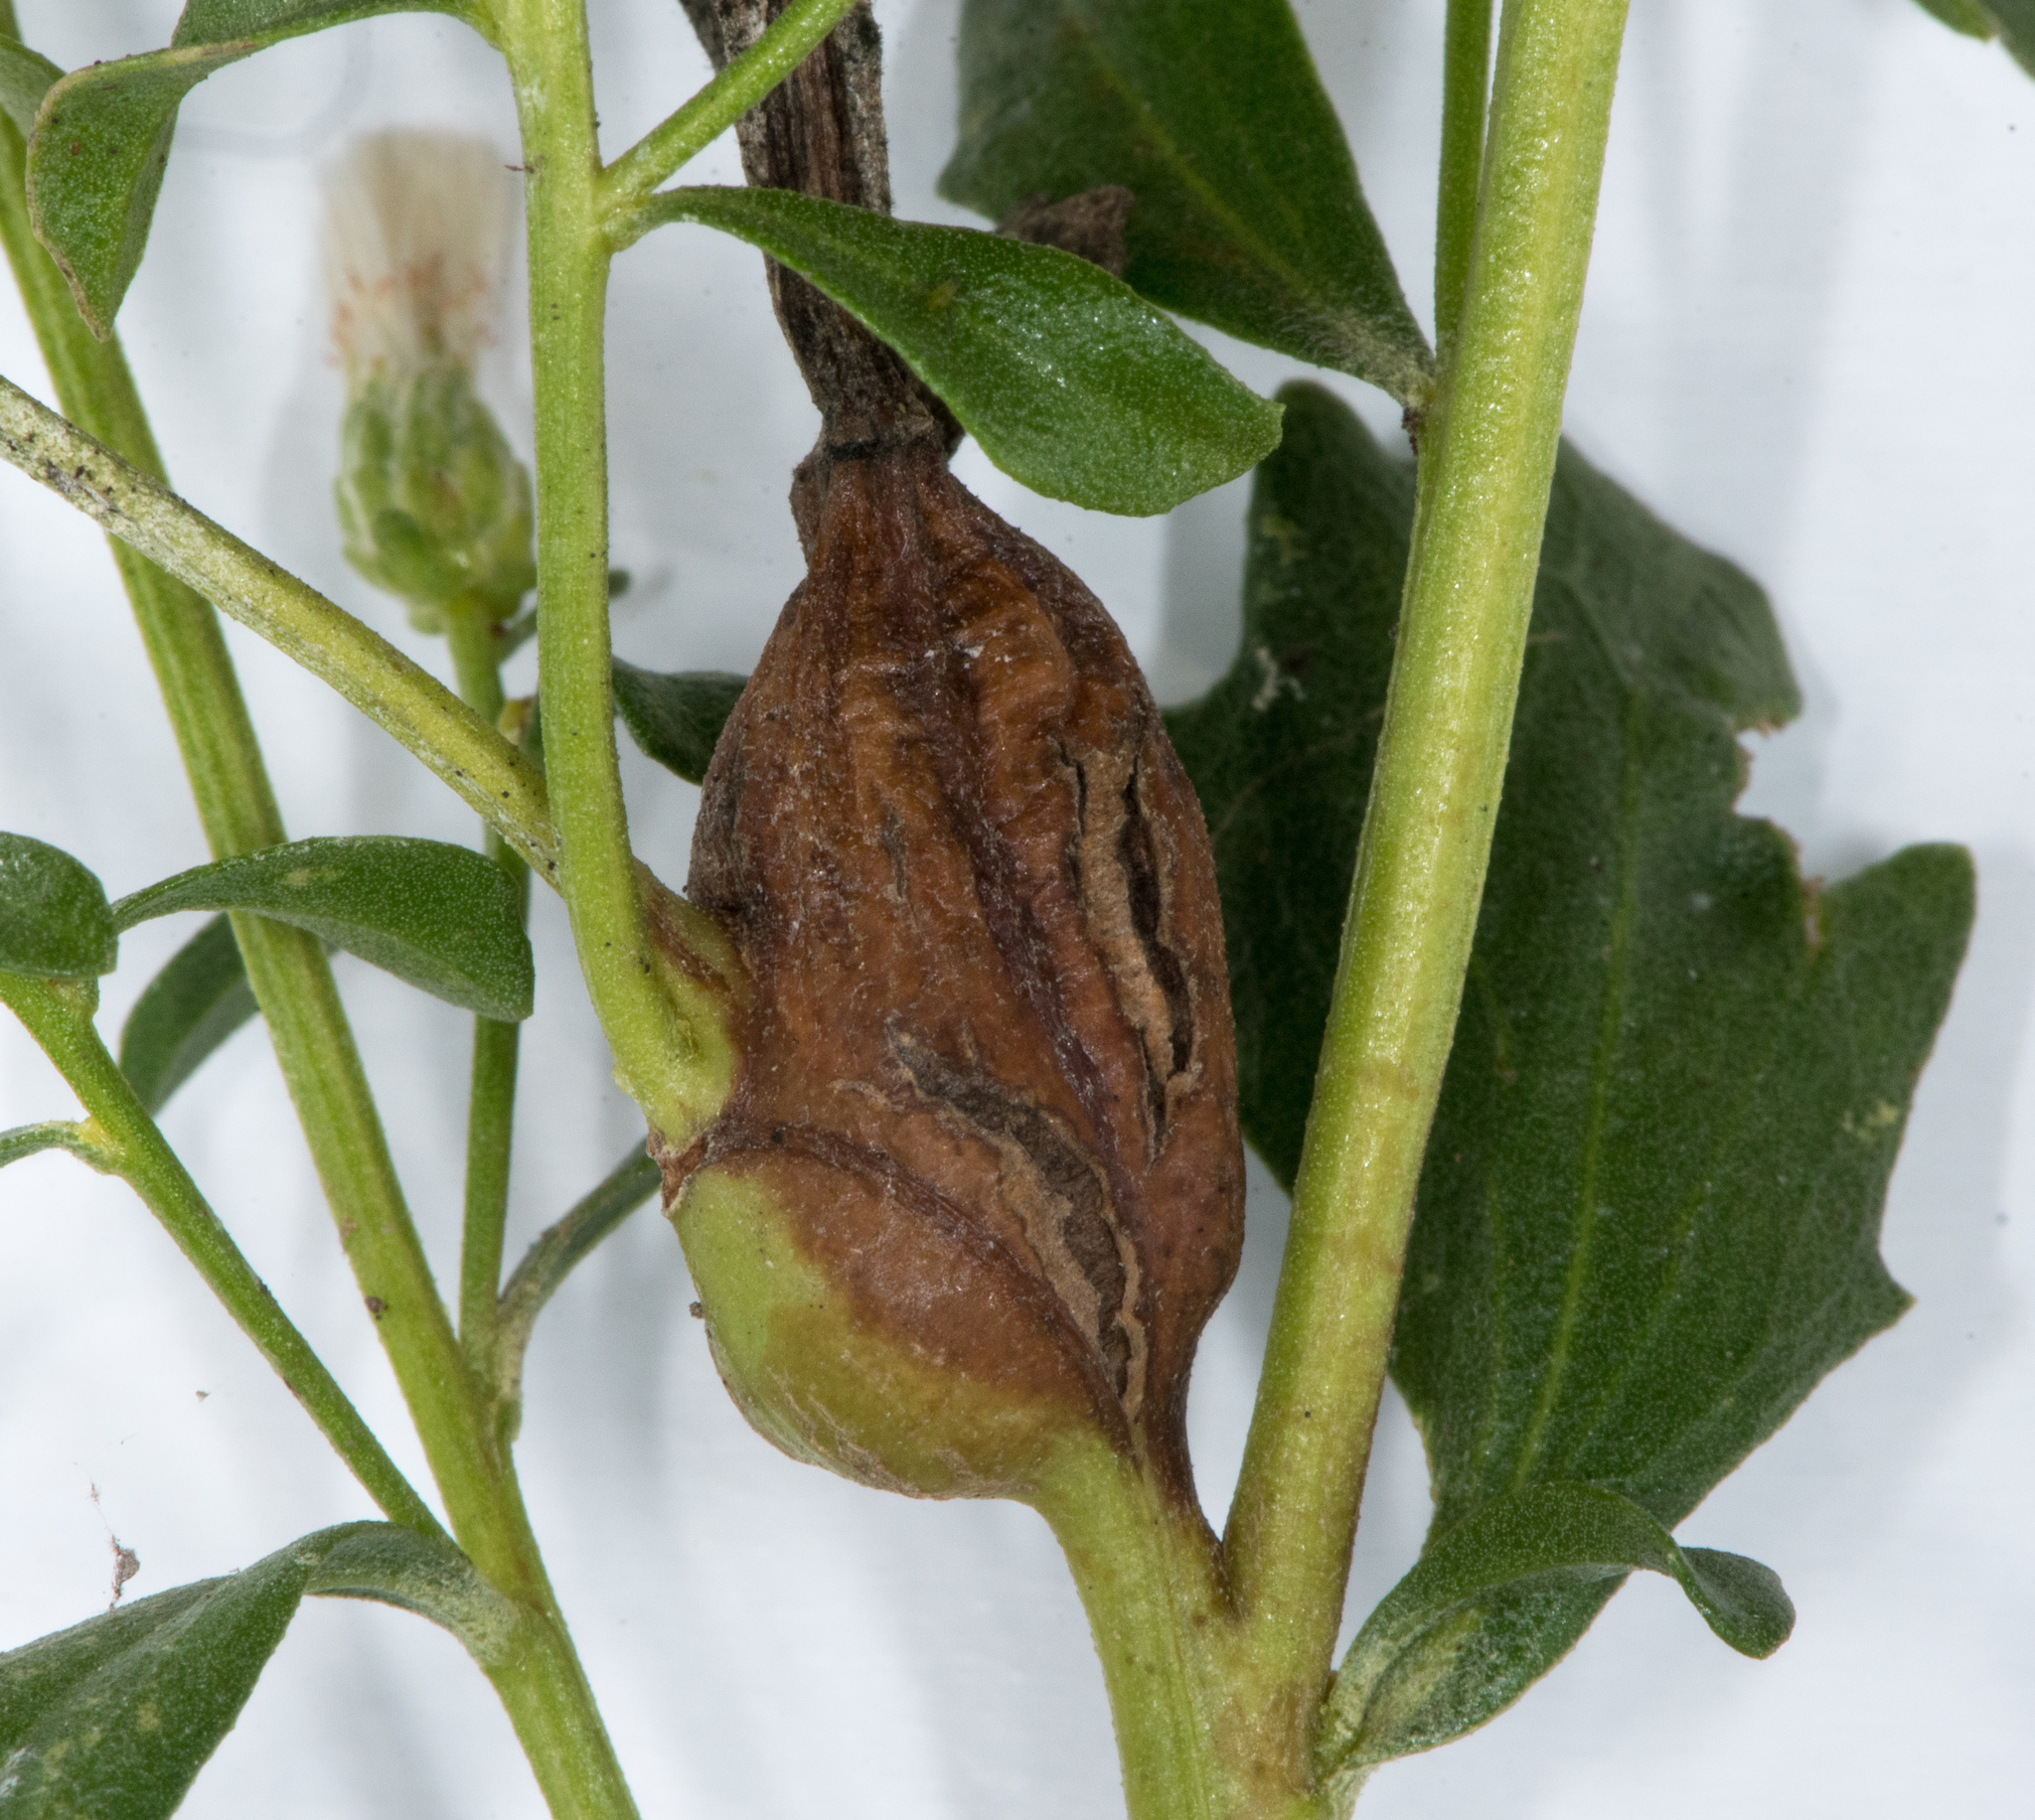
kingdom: Animalia
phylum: Arthropoda
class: Insecta
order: Lepidoptera
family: Gelechiidae
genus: Gnorimoschema
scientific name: Gnorimoschema baccharisella
